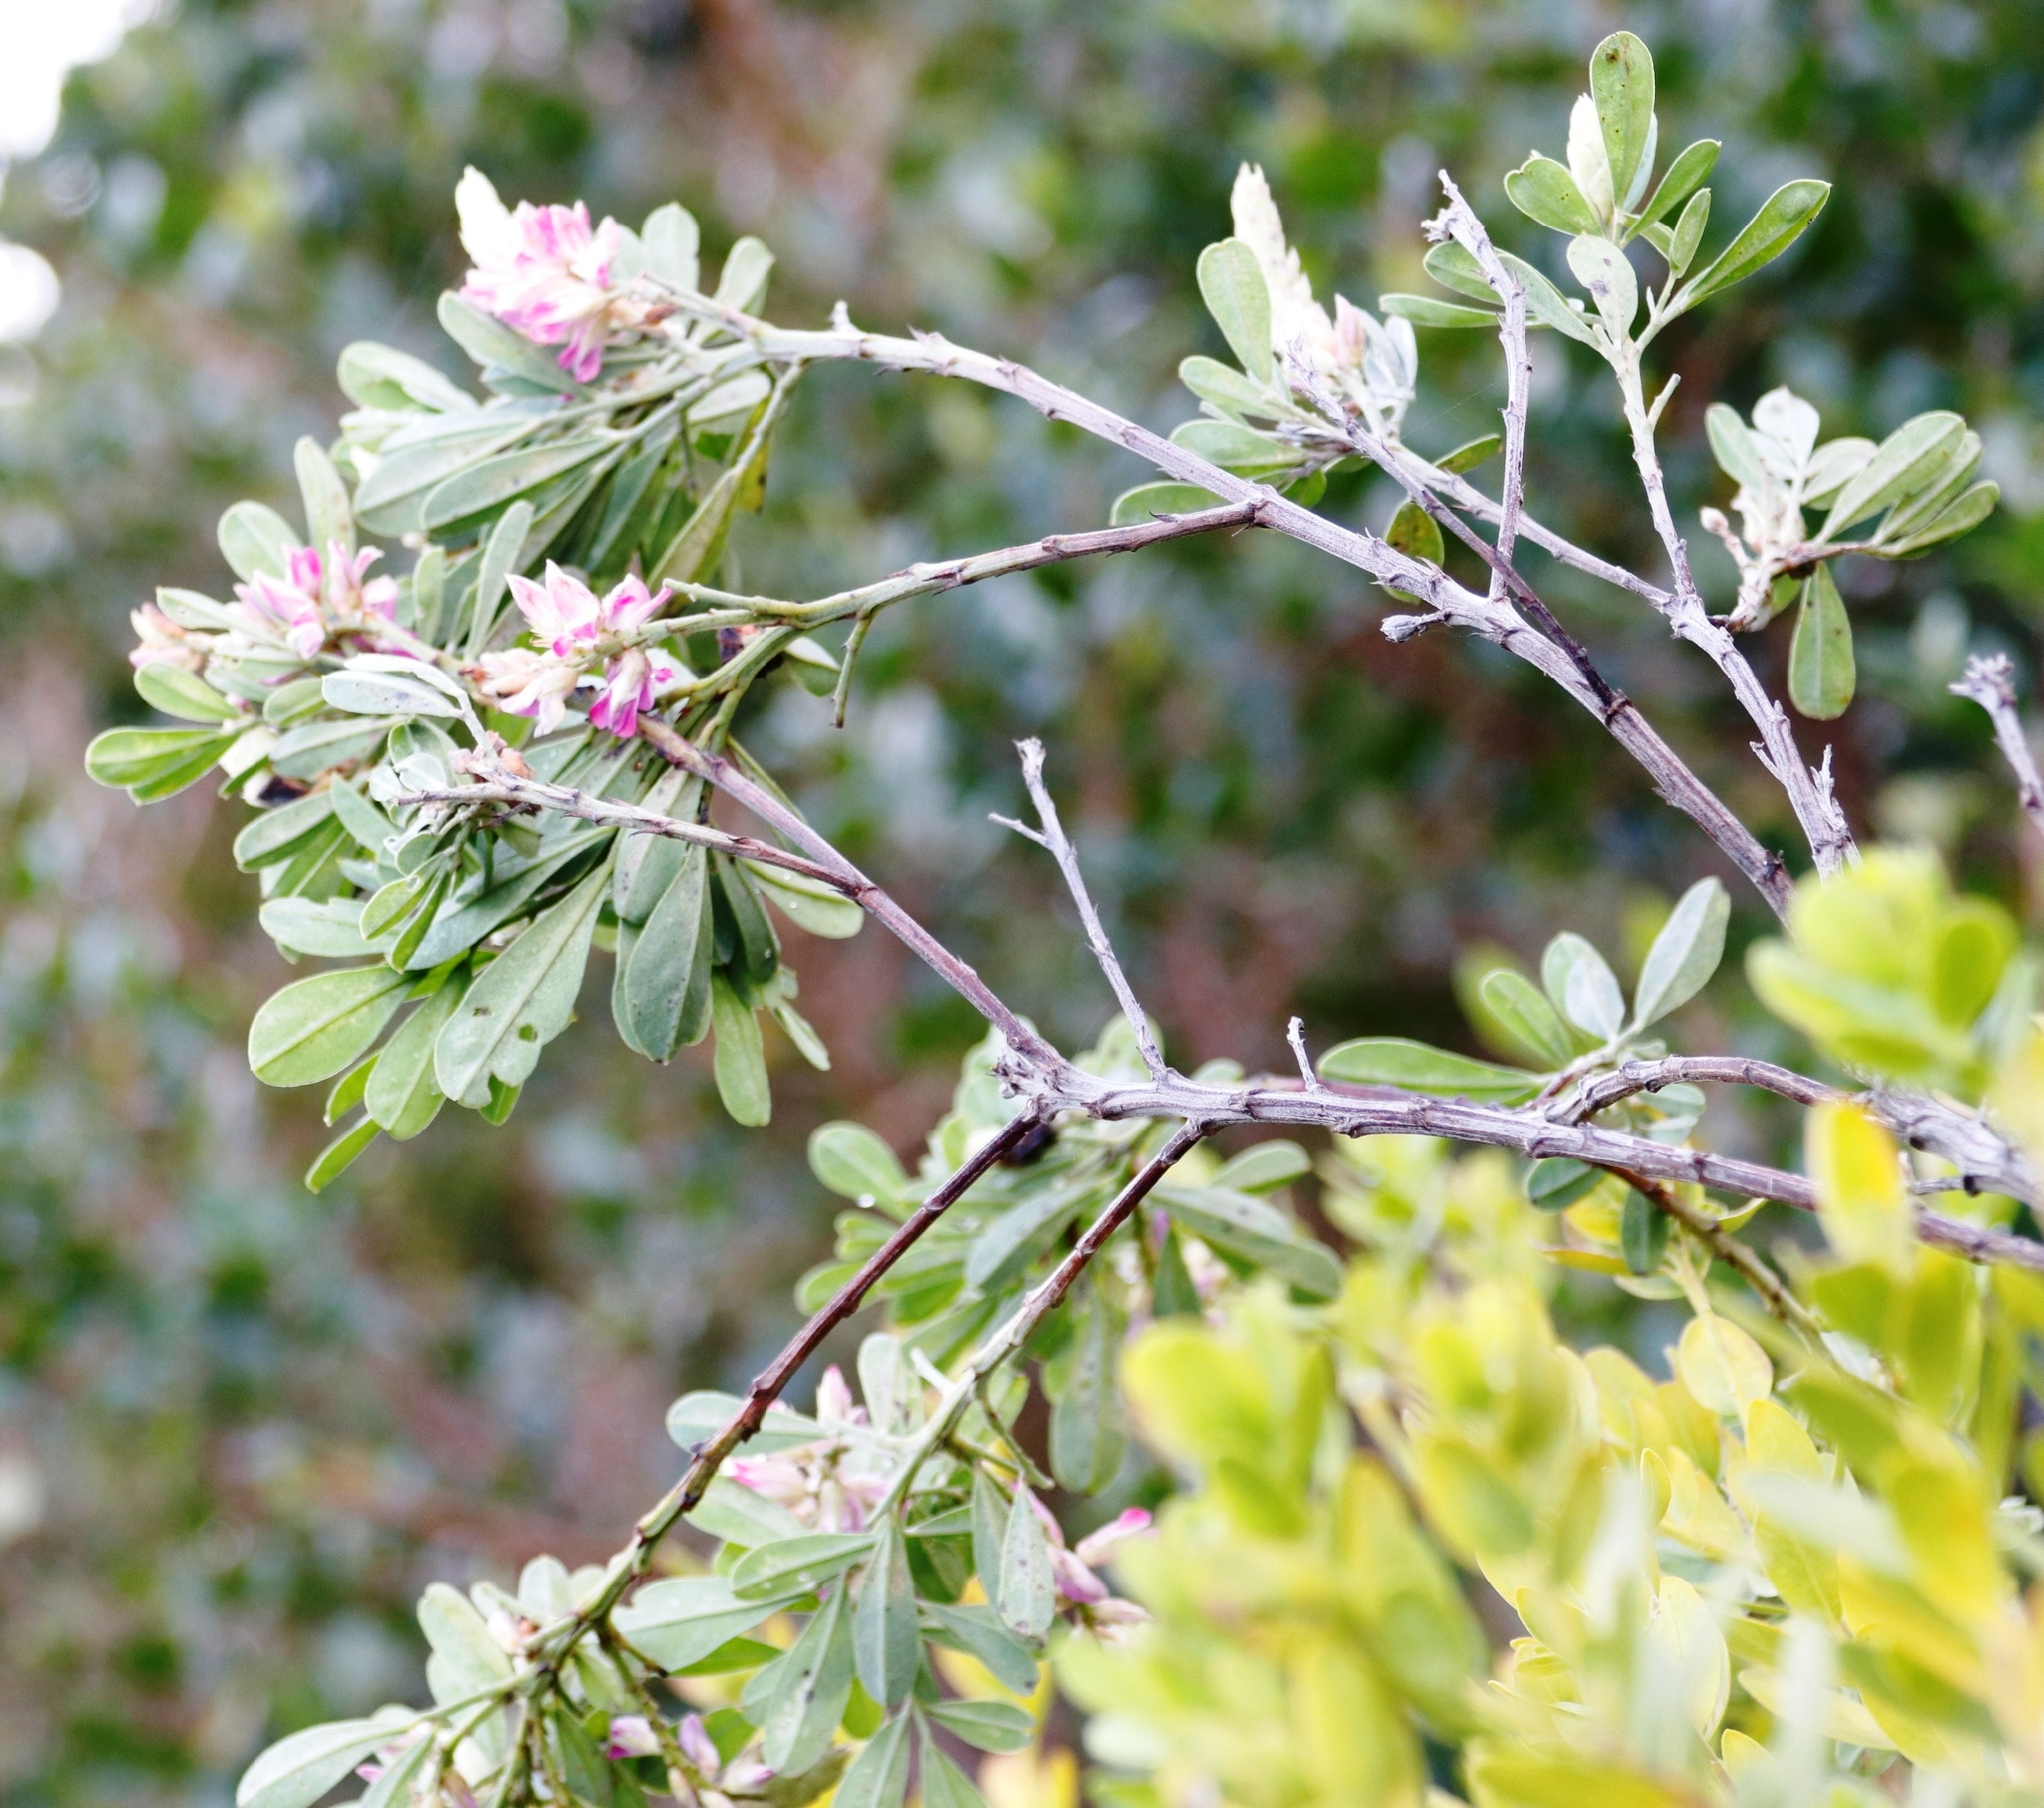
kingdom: Plantae
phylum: Tracheophyta
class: Magnoliopsida
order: Fabales
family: Fabaceae
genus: Indigofera
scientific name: Indigofera cytisoides
